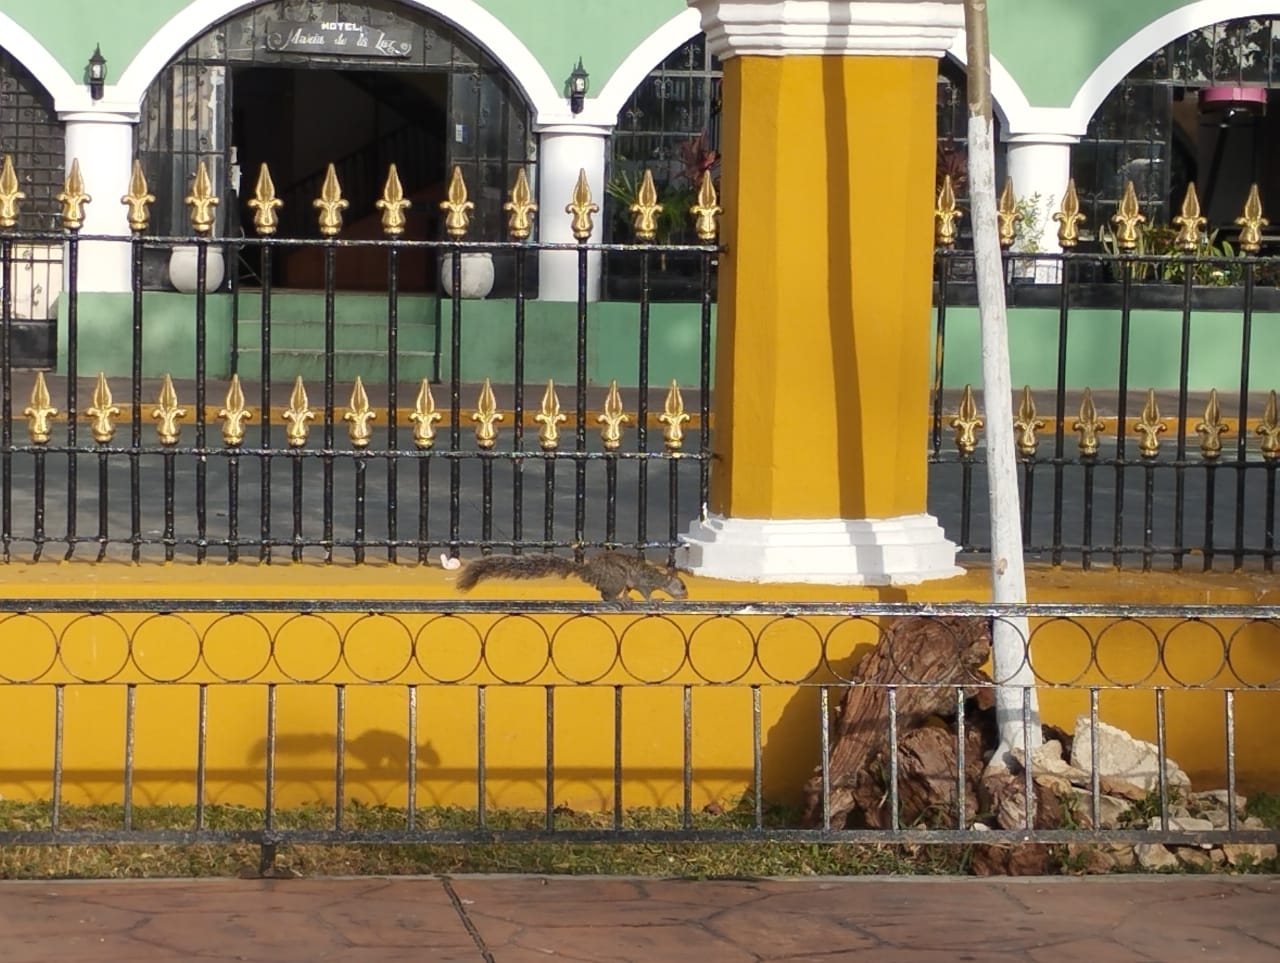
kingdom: Animalia
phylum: Chordata
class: Mammalia
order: Rodentia
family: Sciuridae
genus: Sciurus
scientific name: Sciurus yucatanensis
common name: Yucatan squirrel
